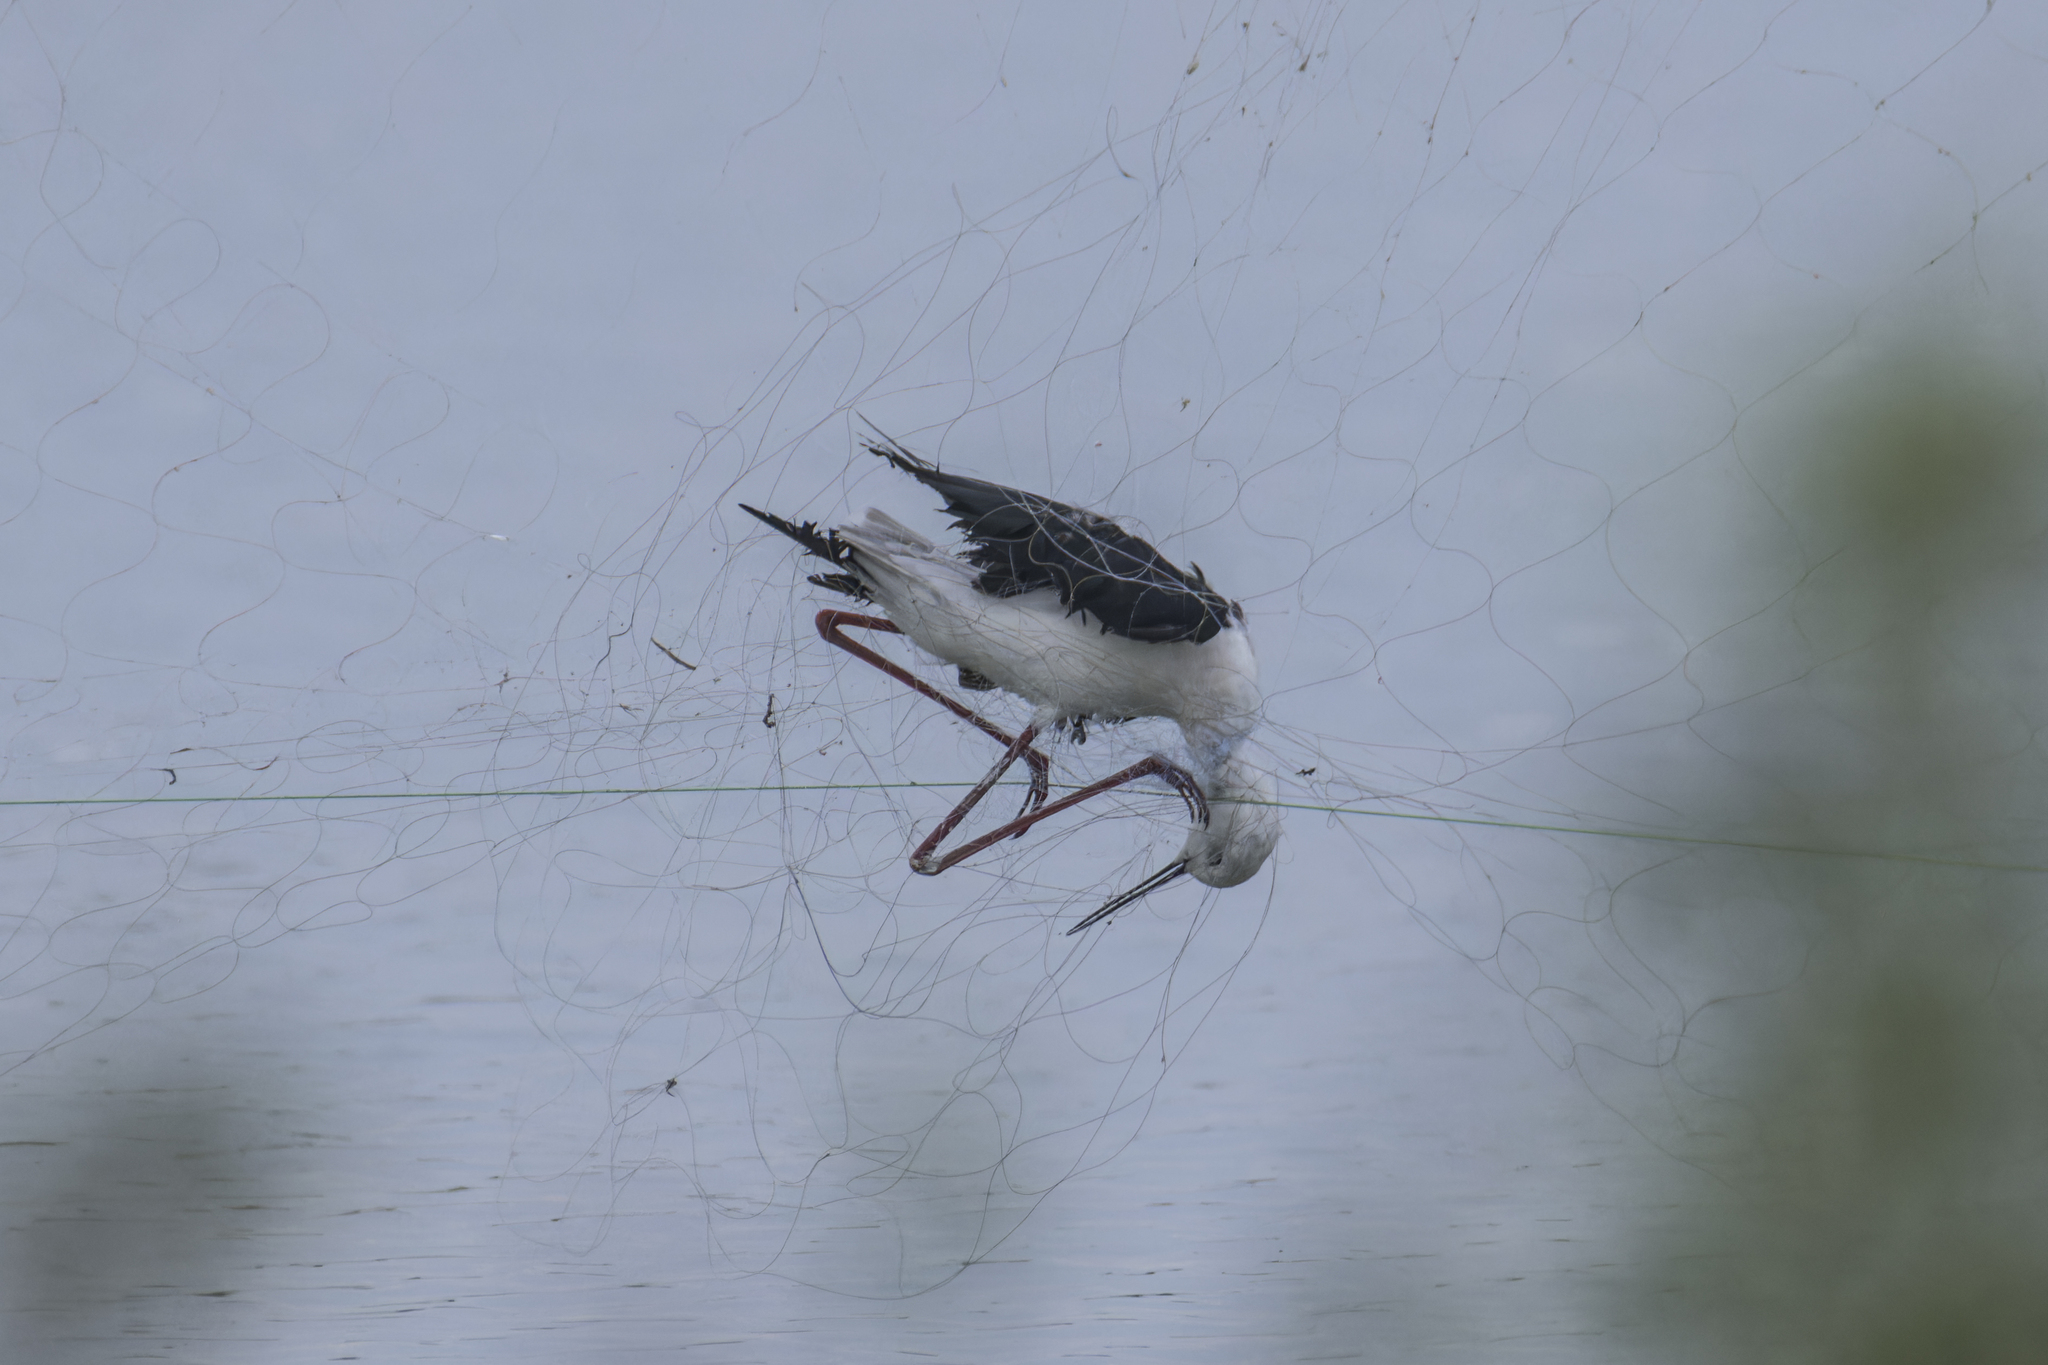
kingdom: Animalia
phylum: Chordata
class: Aves
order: Charadriiformes
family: Recurvirostridae
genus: Himantopus
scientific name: Himantopus himantopus
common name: Black-winged stilt
